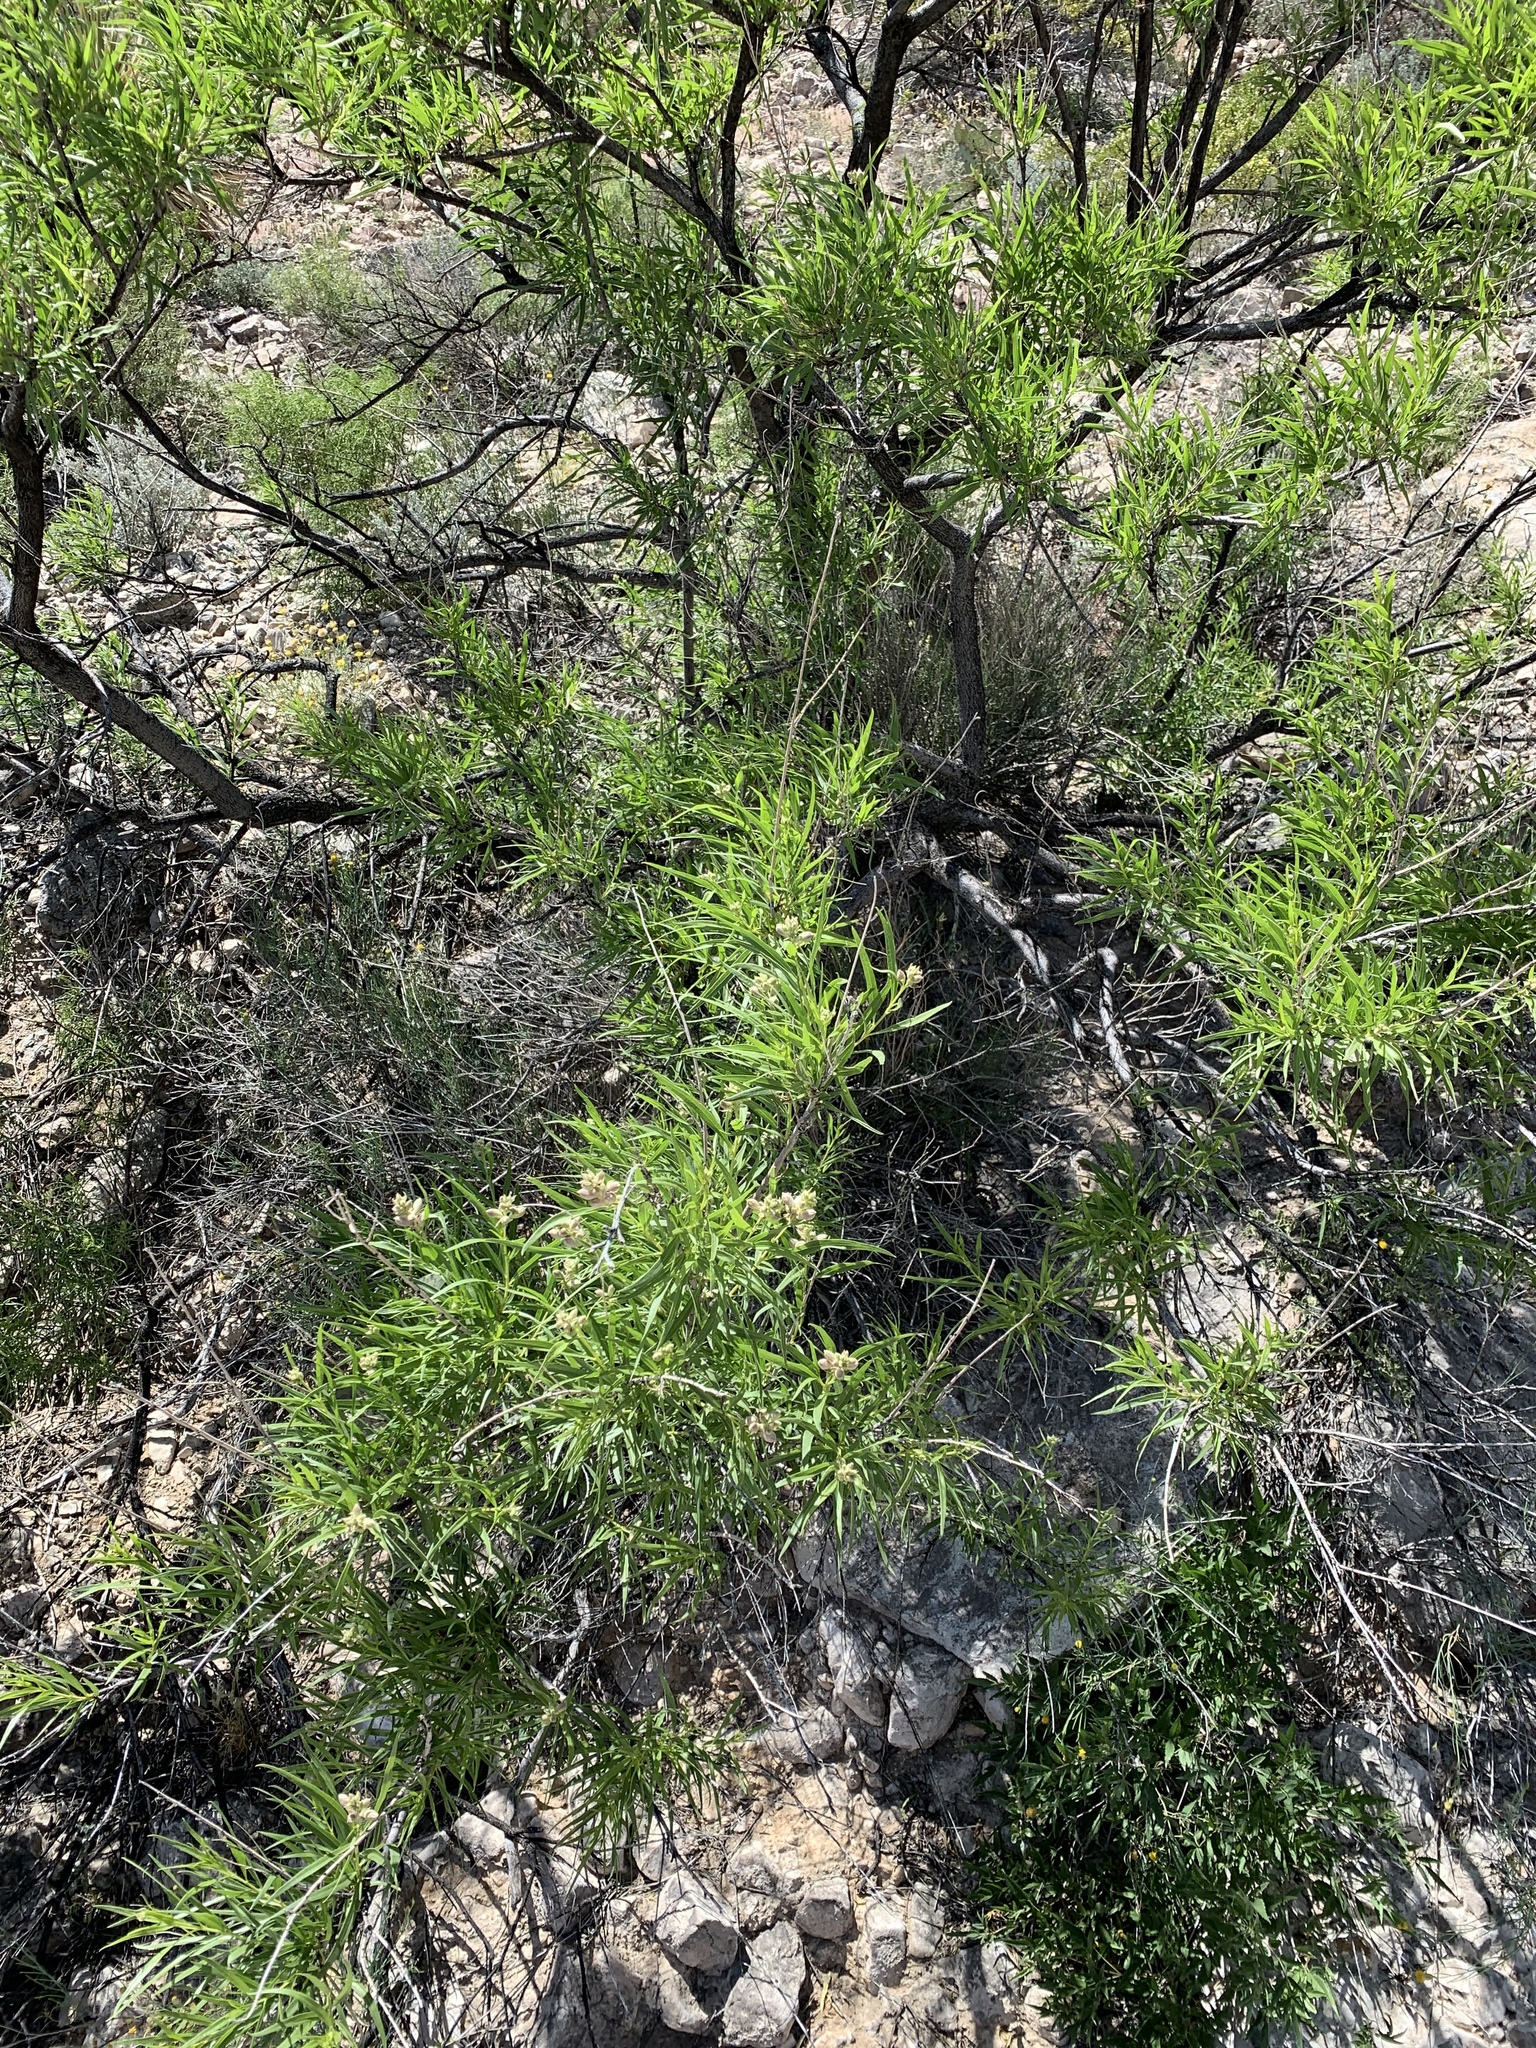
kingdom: Plantae
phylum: Tracheophyta
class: Magnoliopsida
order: Lamiales
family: Bignoniaceae
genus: Chilopsis
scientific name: Chilopsis linearis
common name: Desert-willow
